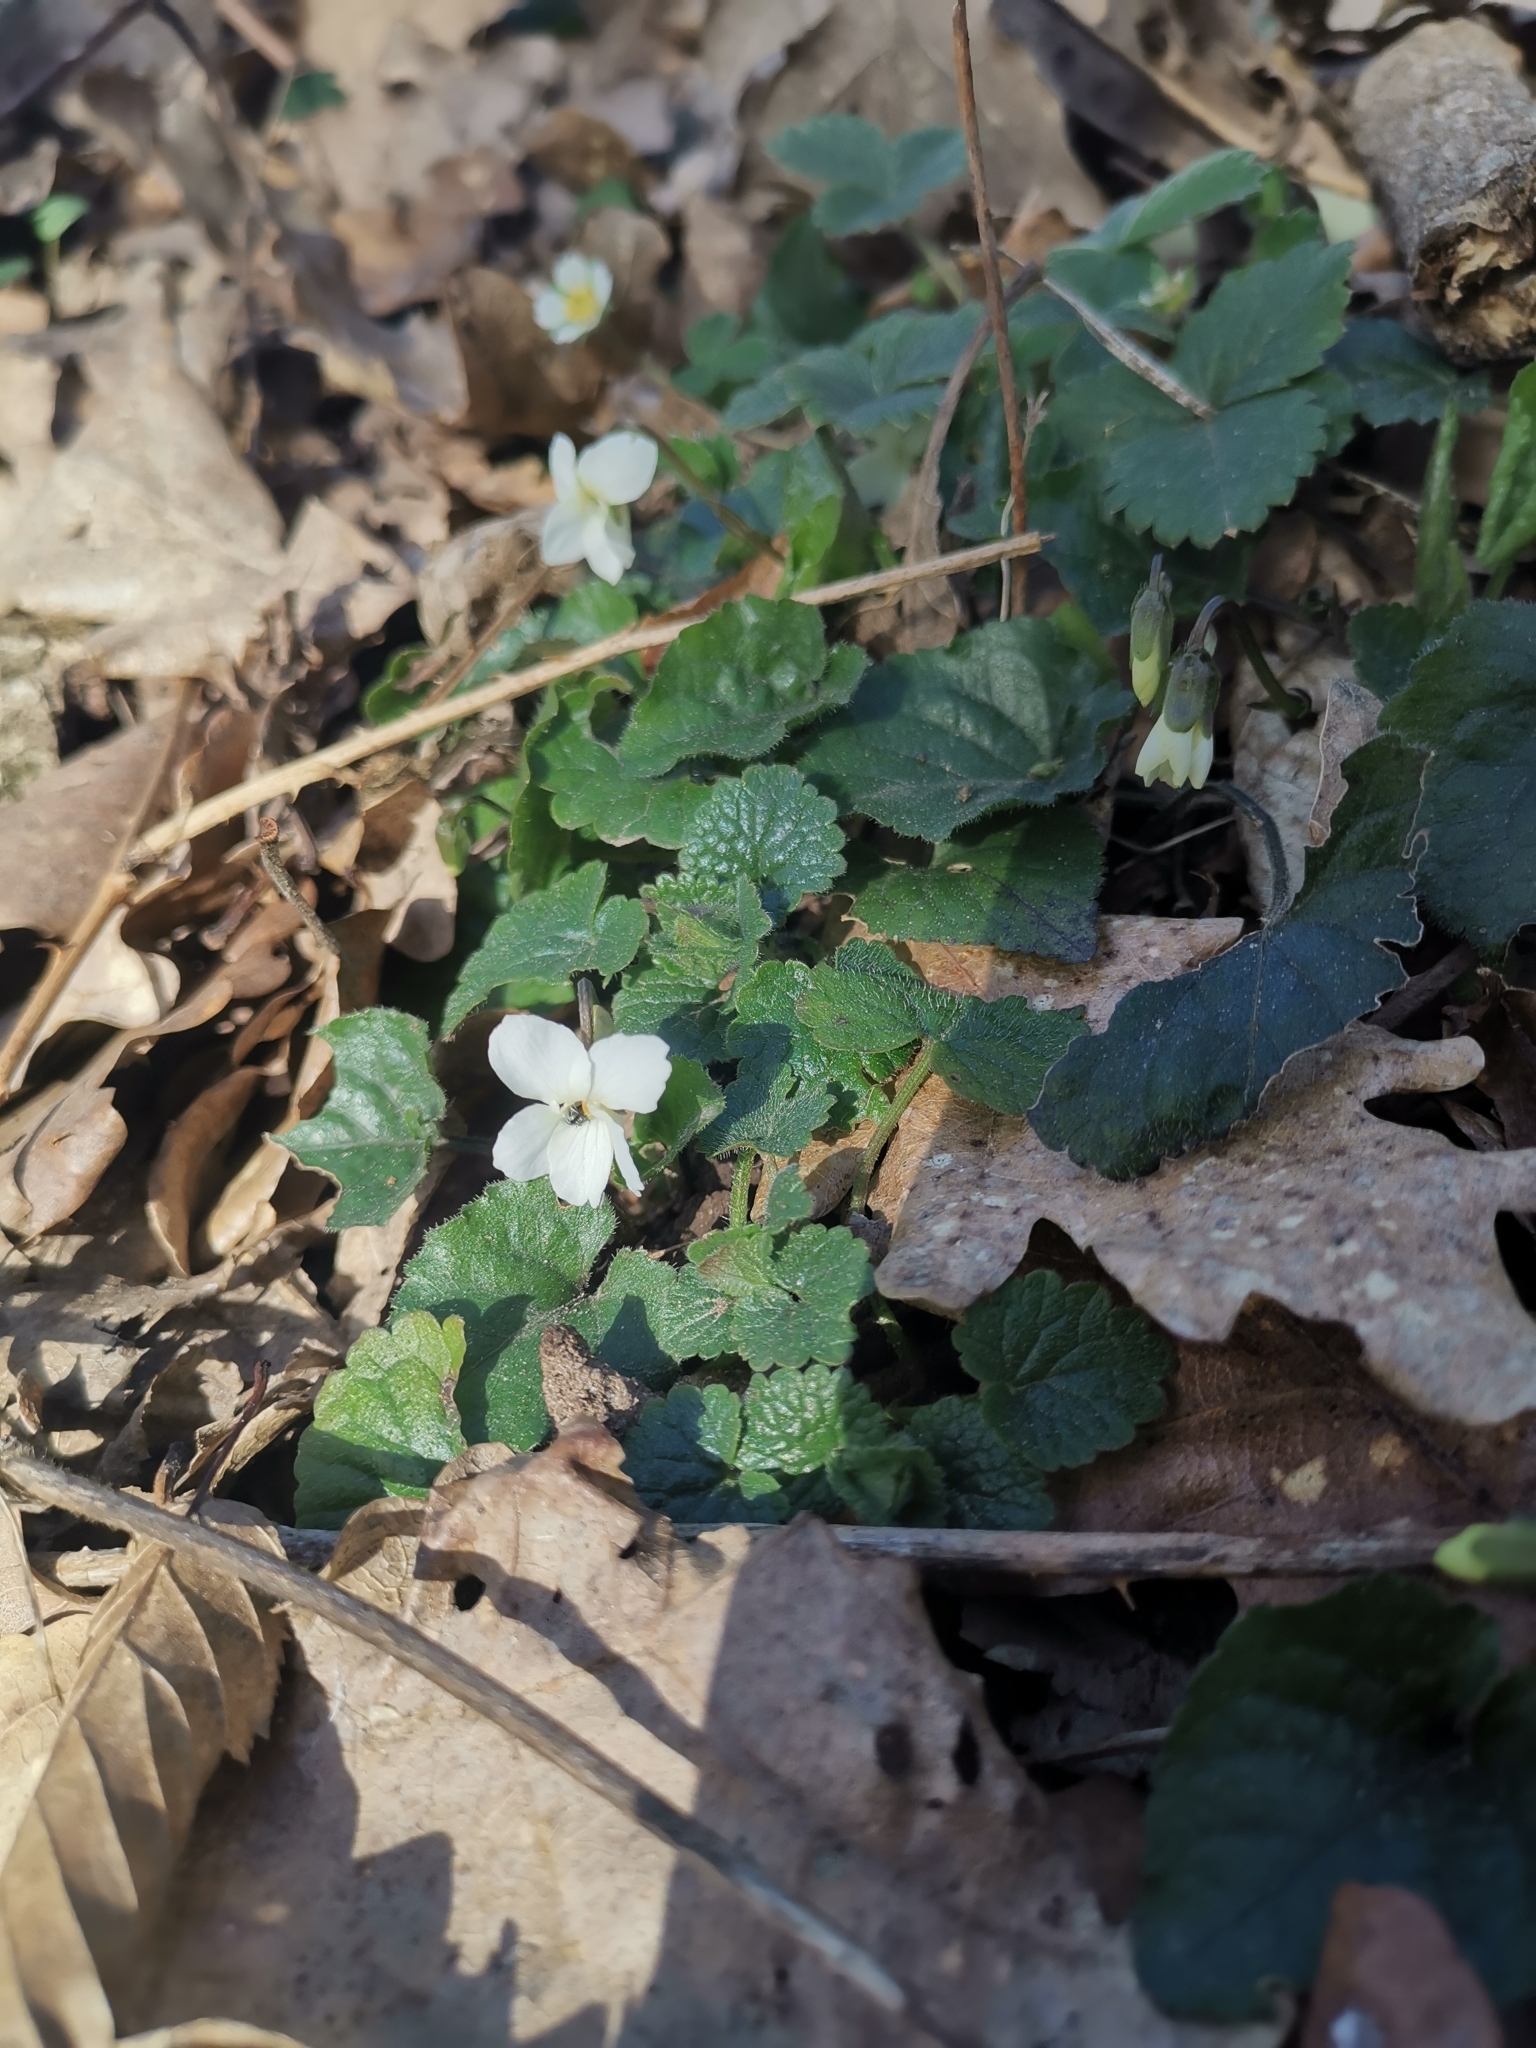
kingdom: Plantae
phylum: Tracheophyta
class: Magnoliopsida
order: Malpighiales
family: Violaceae
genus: Viola
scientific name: Viola alba
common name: White violet
